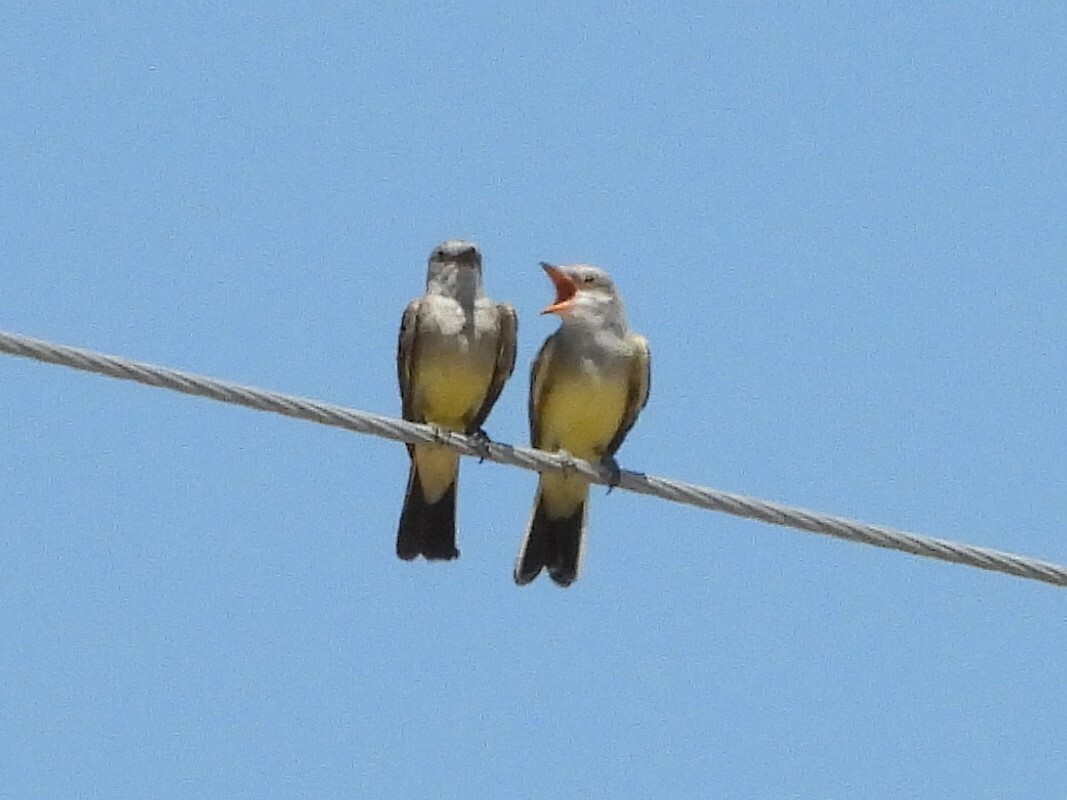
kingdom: Animalia
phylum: Chordata
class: Aves
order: Passeriformes
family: Tyrannidae
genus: Tyrannus
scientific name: Tyrannus verticalis
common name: Western kingbird
